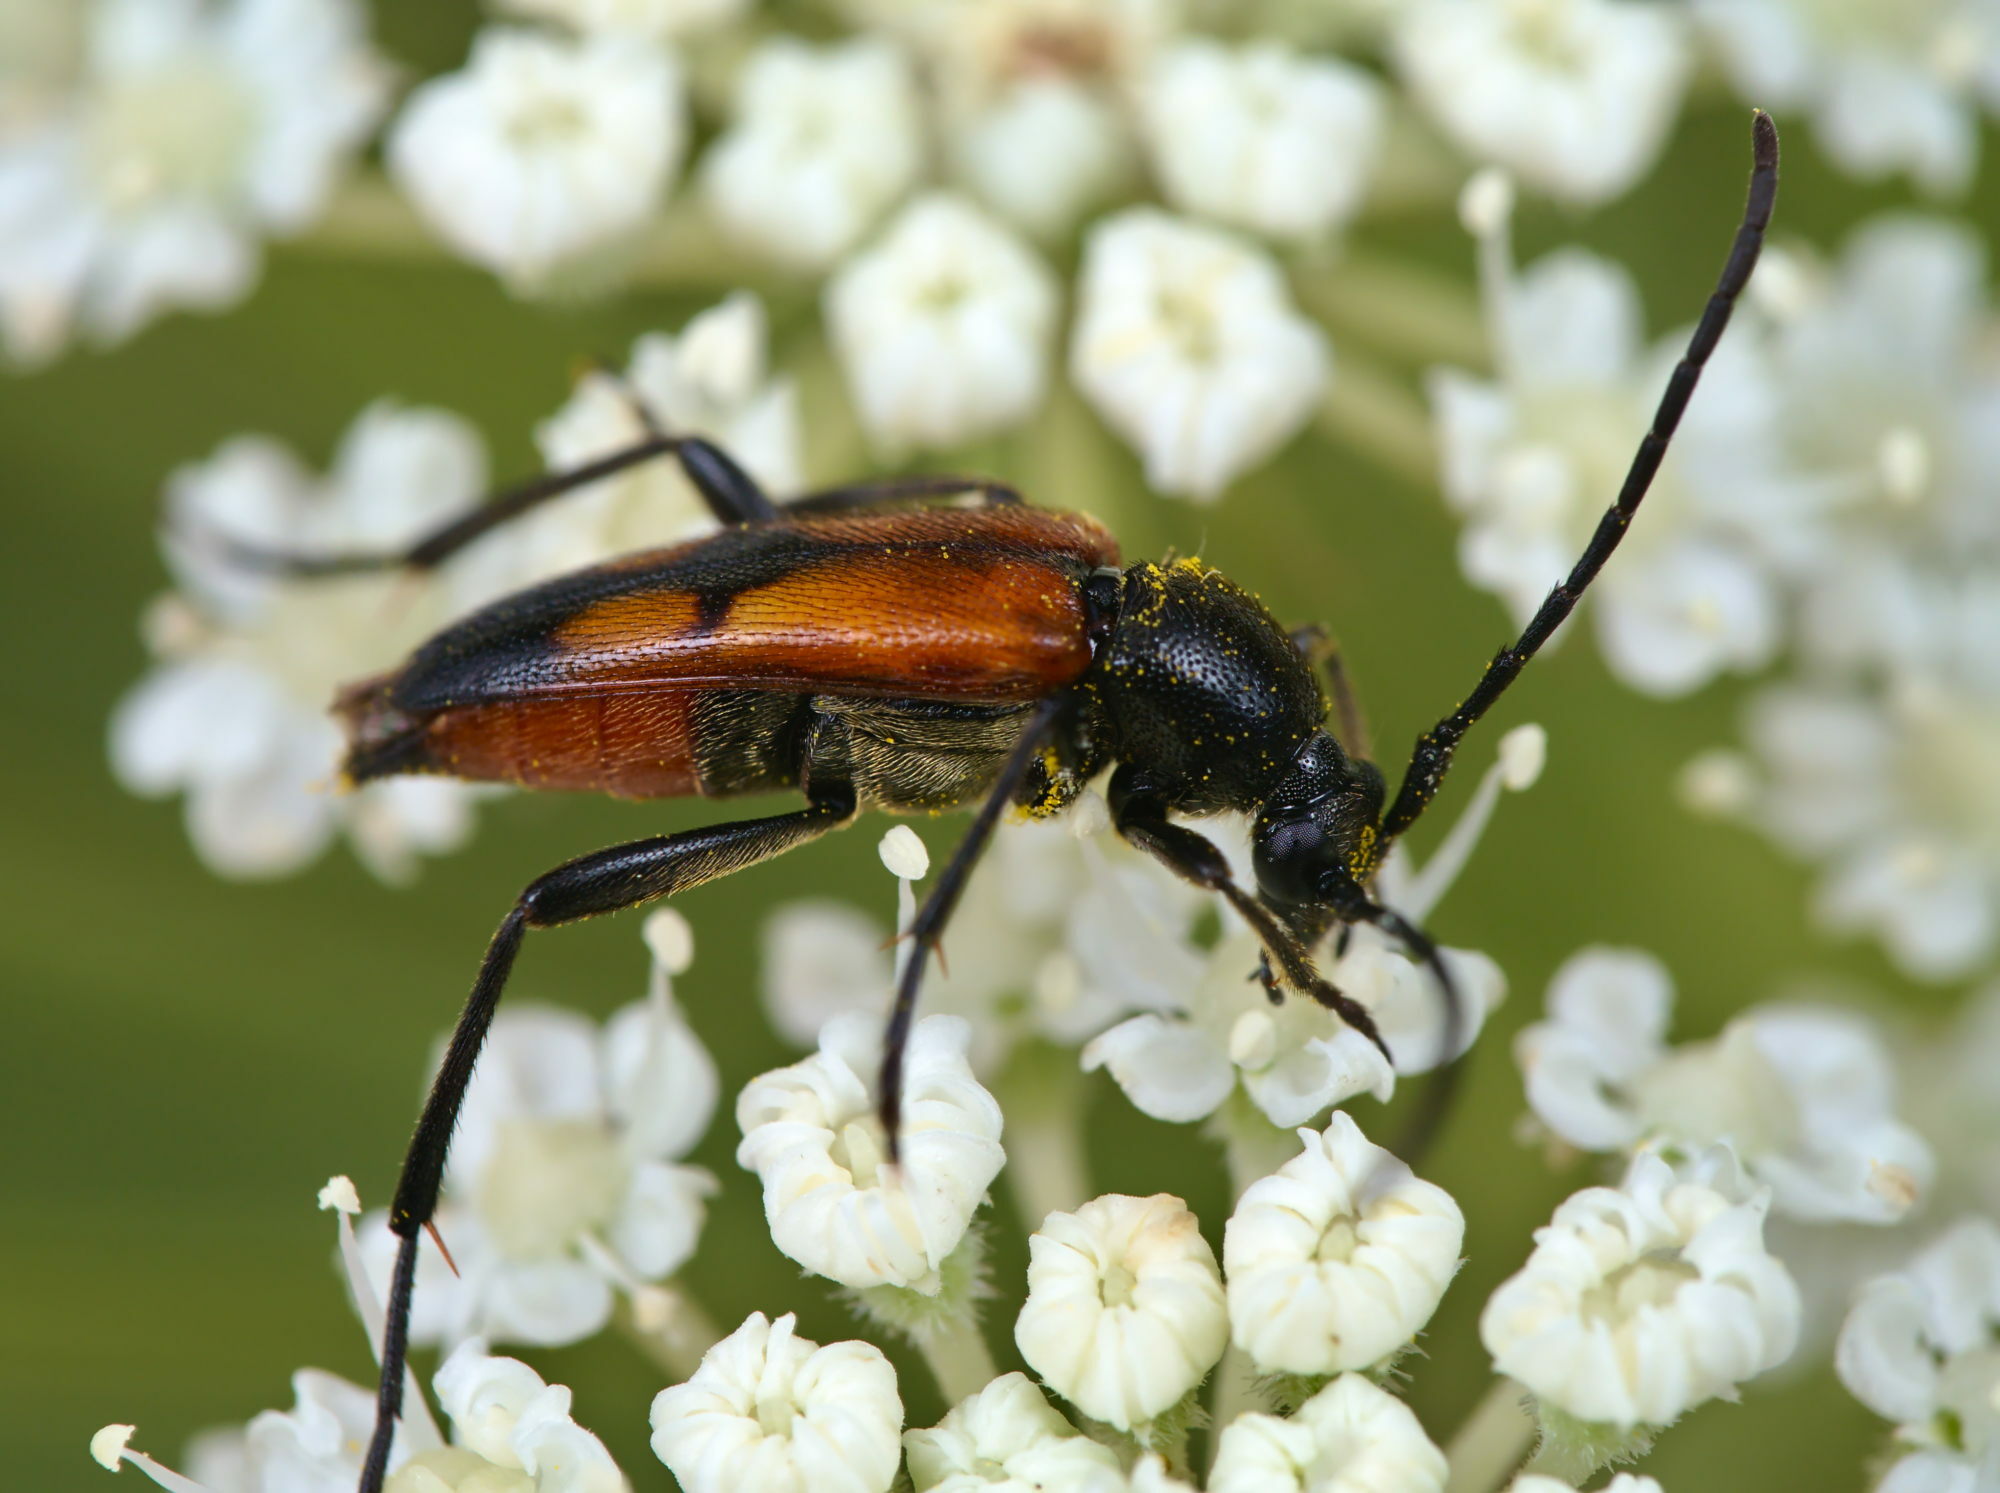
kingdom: Animalia
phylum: Arthropoda
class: Insecta
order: Coleoptera
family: Cerambycidae
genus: Stenurella
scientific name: Stenurella bifasciata
